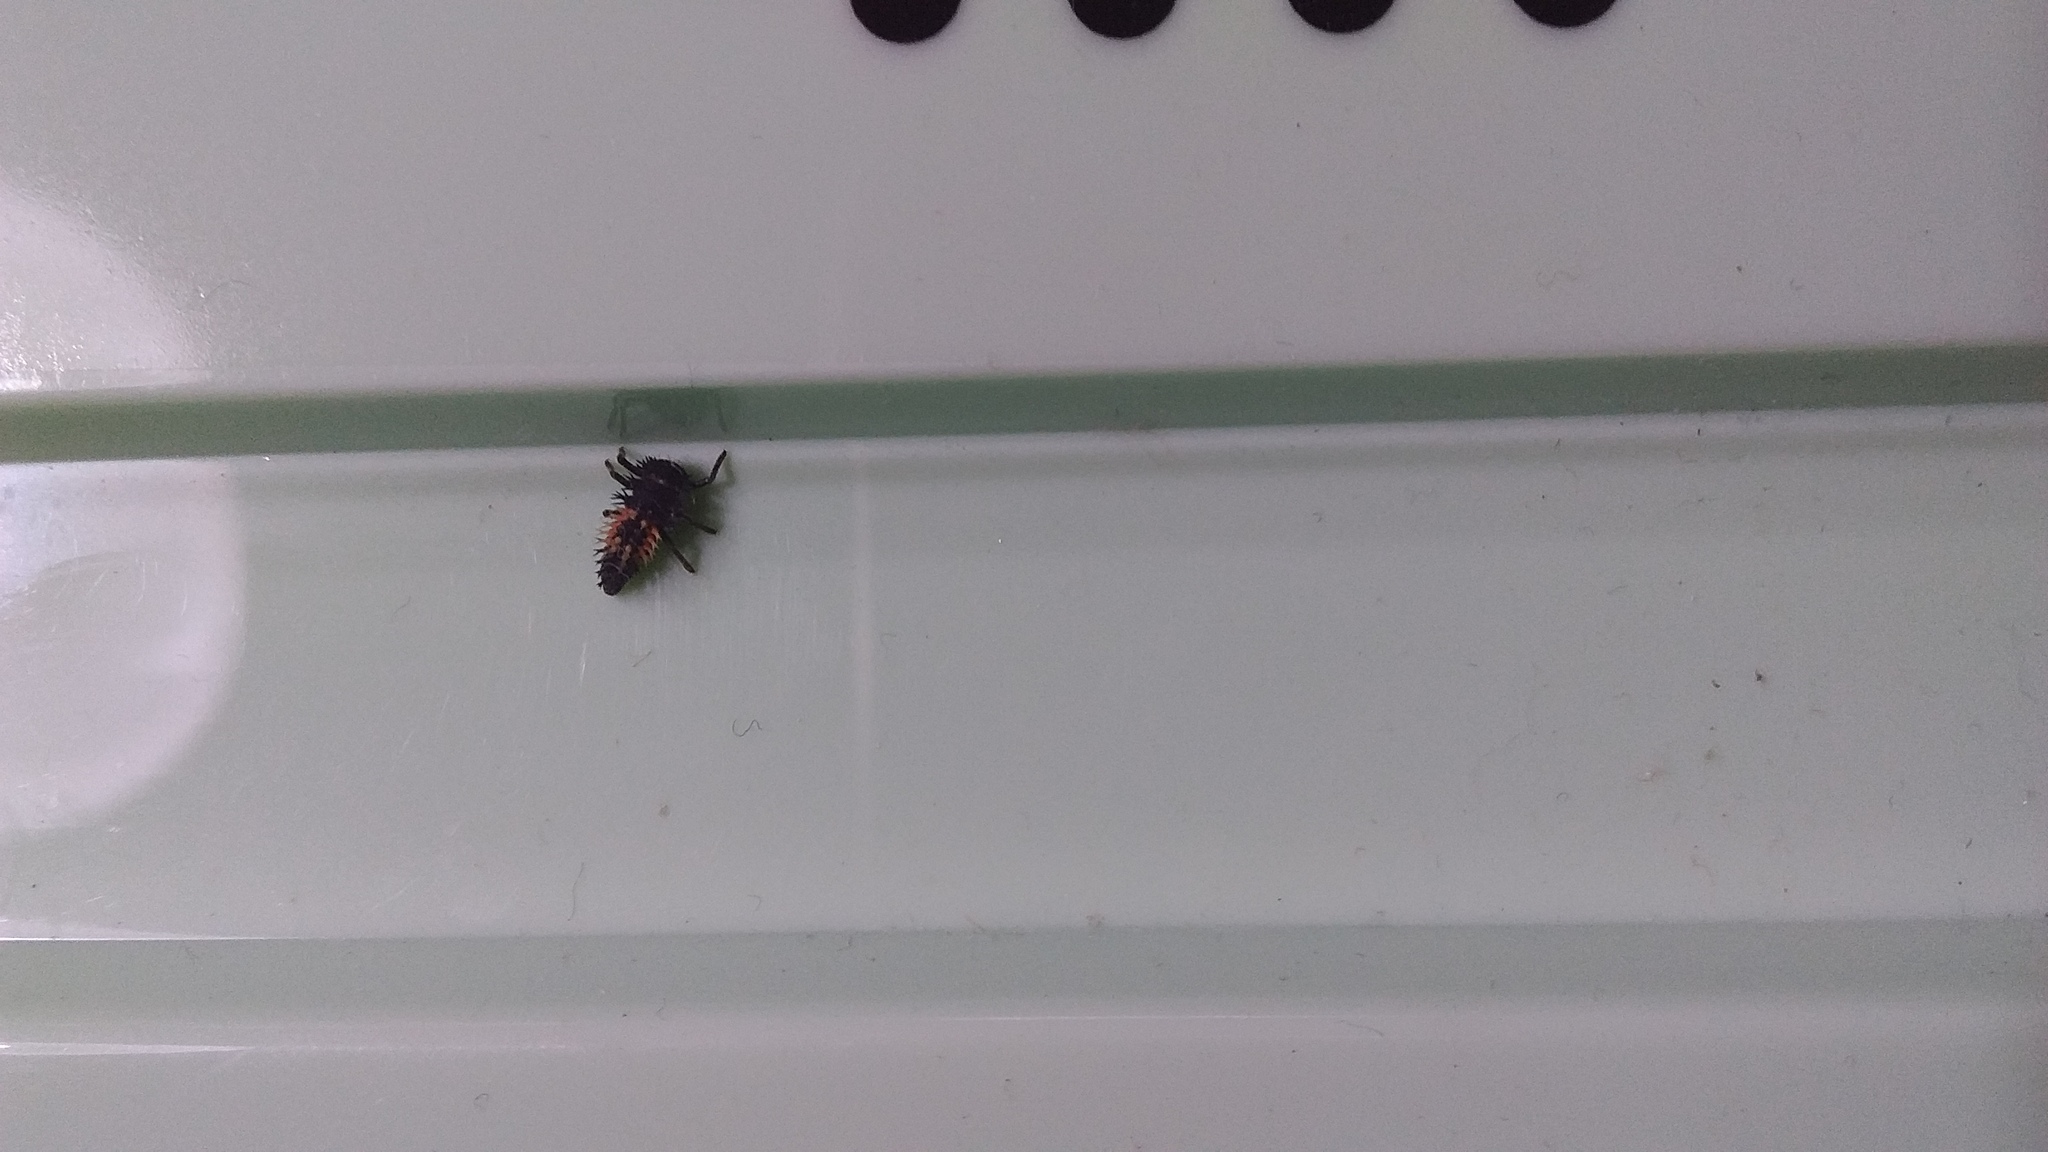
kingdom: Animalia
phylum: Arthropoda
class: Insecta
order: Coleoptera
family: Coccinellidae
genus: Harmonia
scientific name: Harmonia axyridis
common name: Harlequin ladybird
